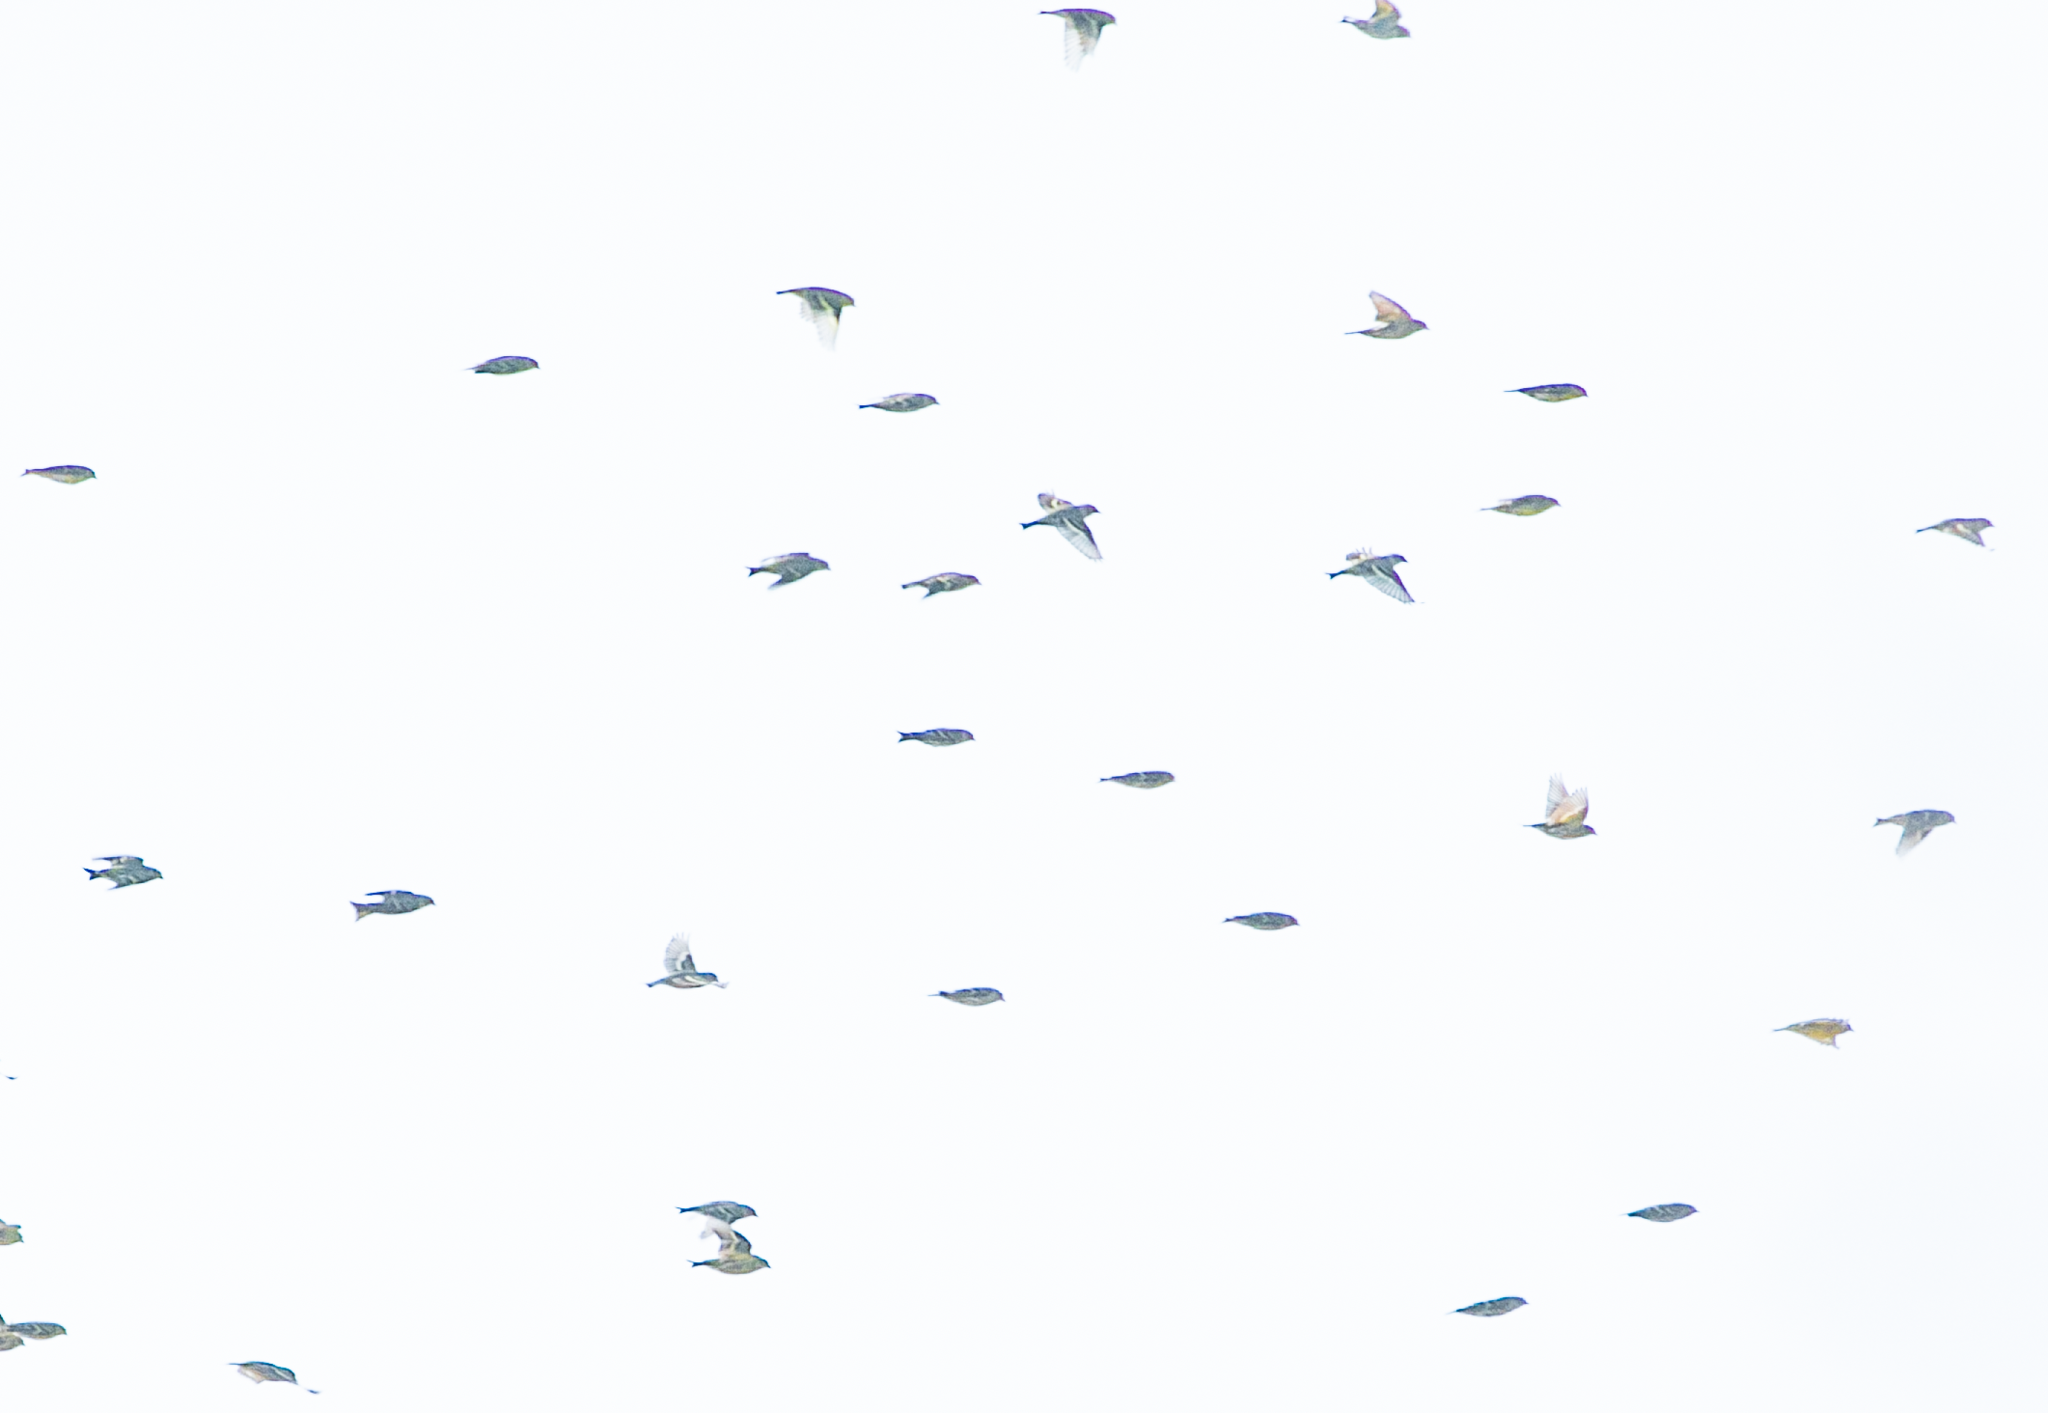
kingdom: Animalia
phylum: Chordata
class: Aves
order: Passeriformes
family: Fringillidae
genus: Spinus
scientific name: Spinus spinus
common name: Eurasian siskin
